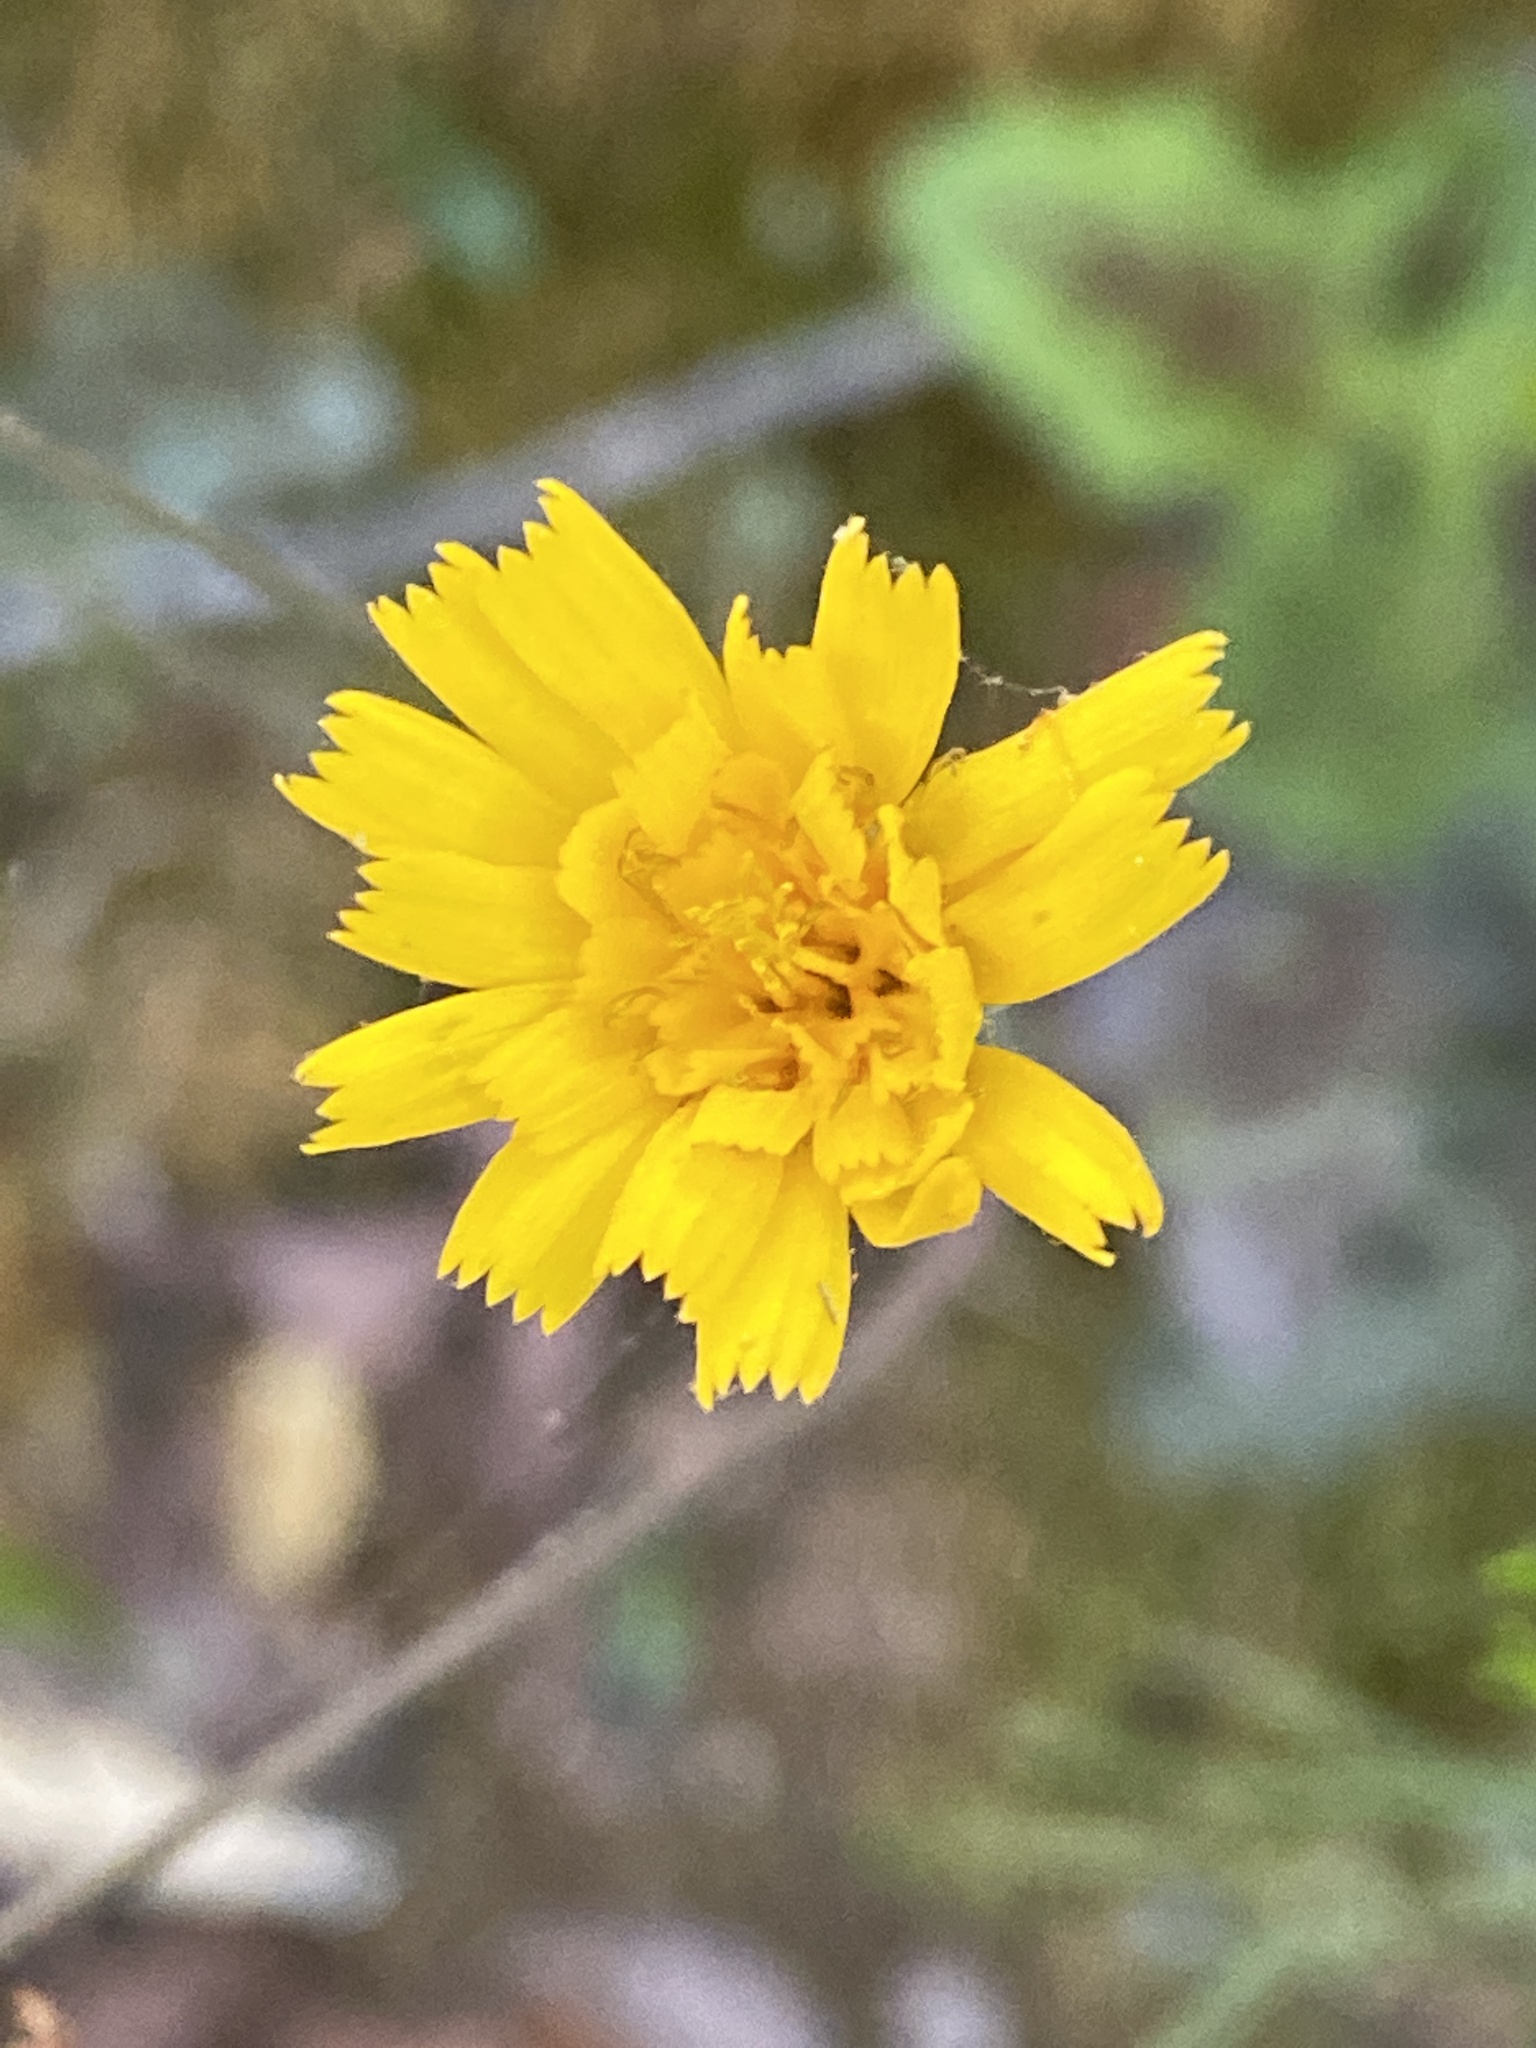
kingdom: Plantae
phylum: Tracheophyta
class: Magnoliopsida
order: Asterales
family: Asteraceae
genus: Hieracium
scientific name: Hieracium venosum
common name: Rattlesnake hawkweed
